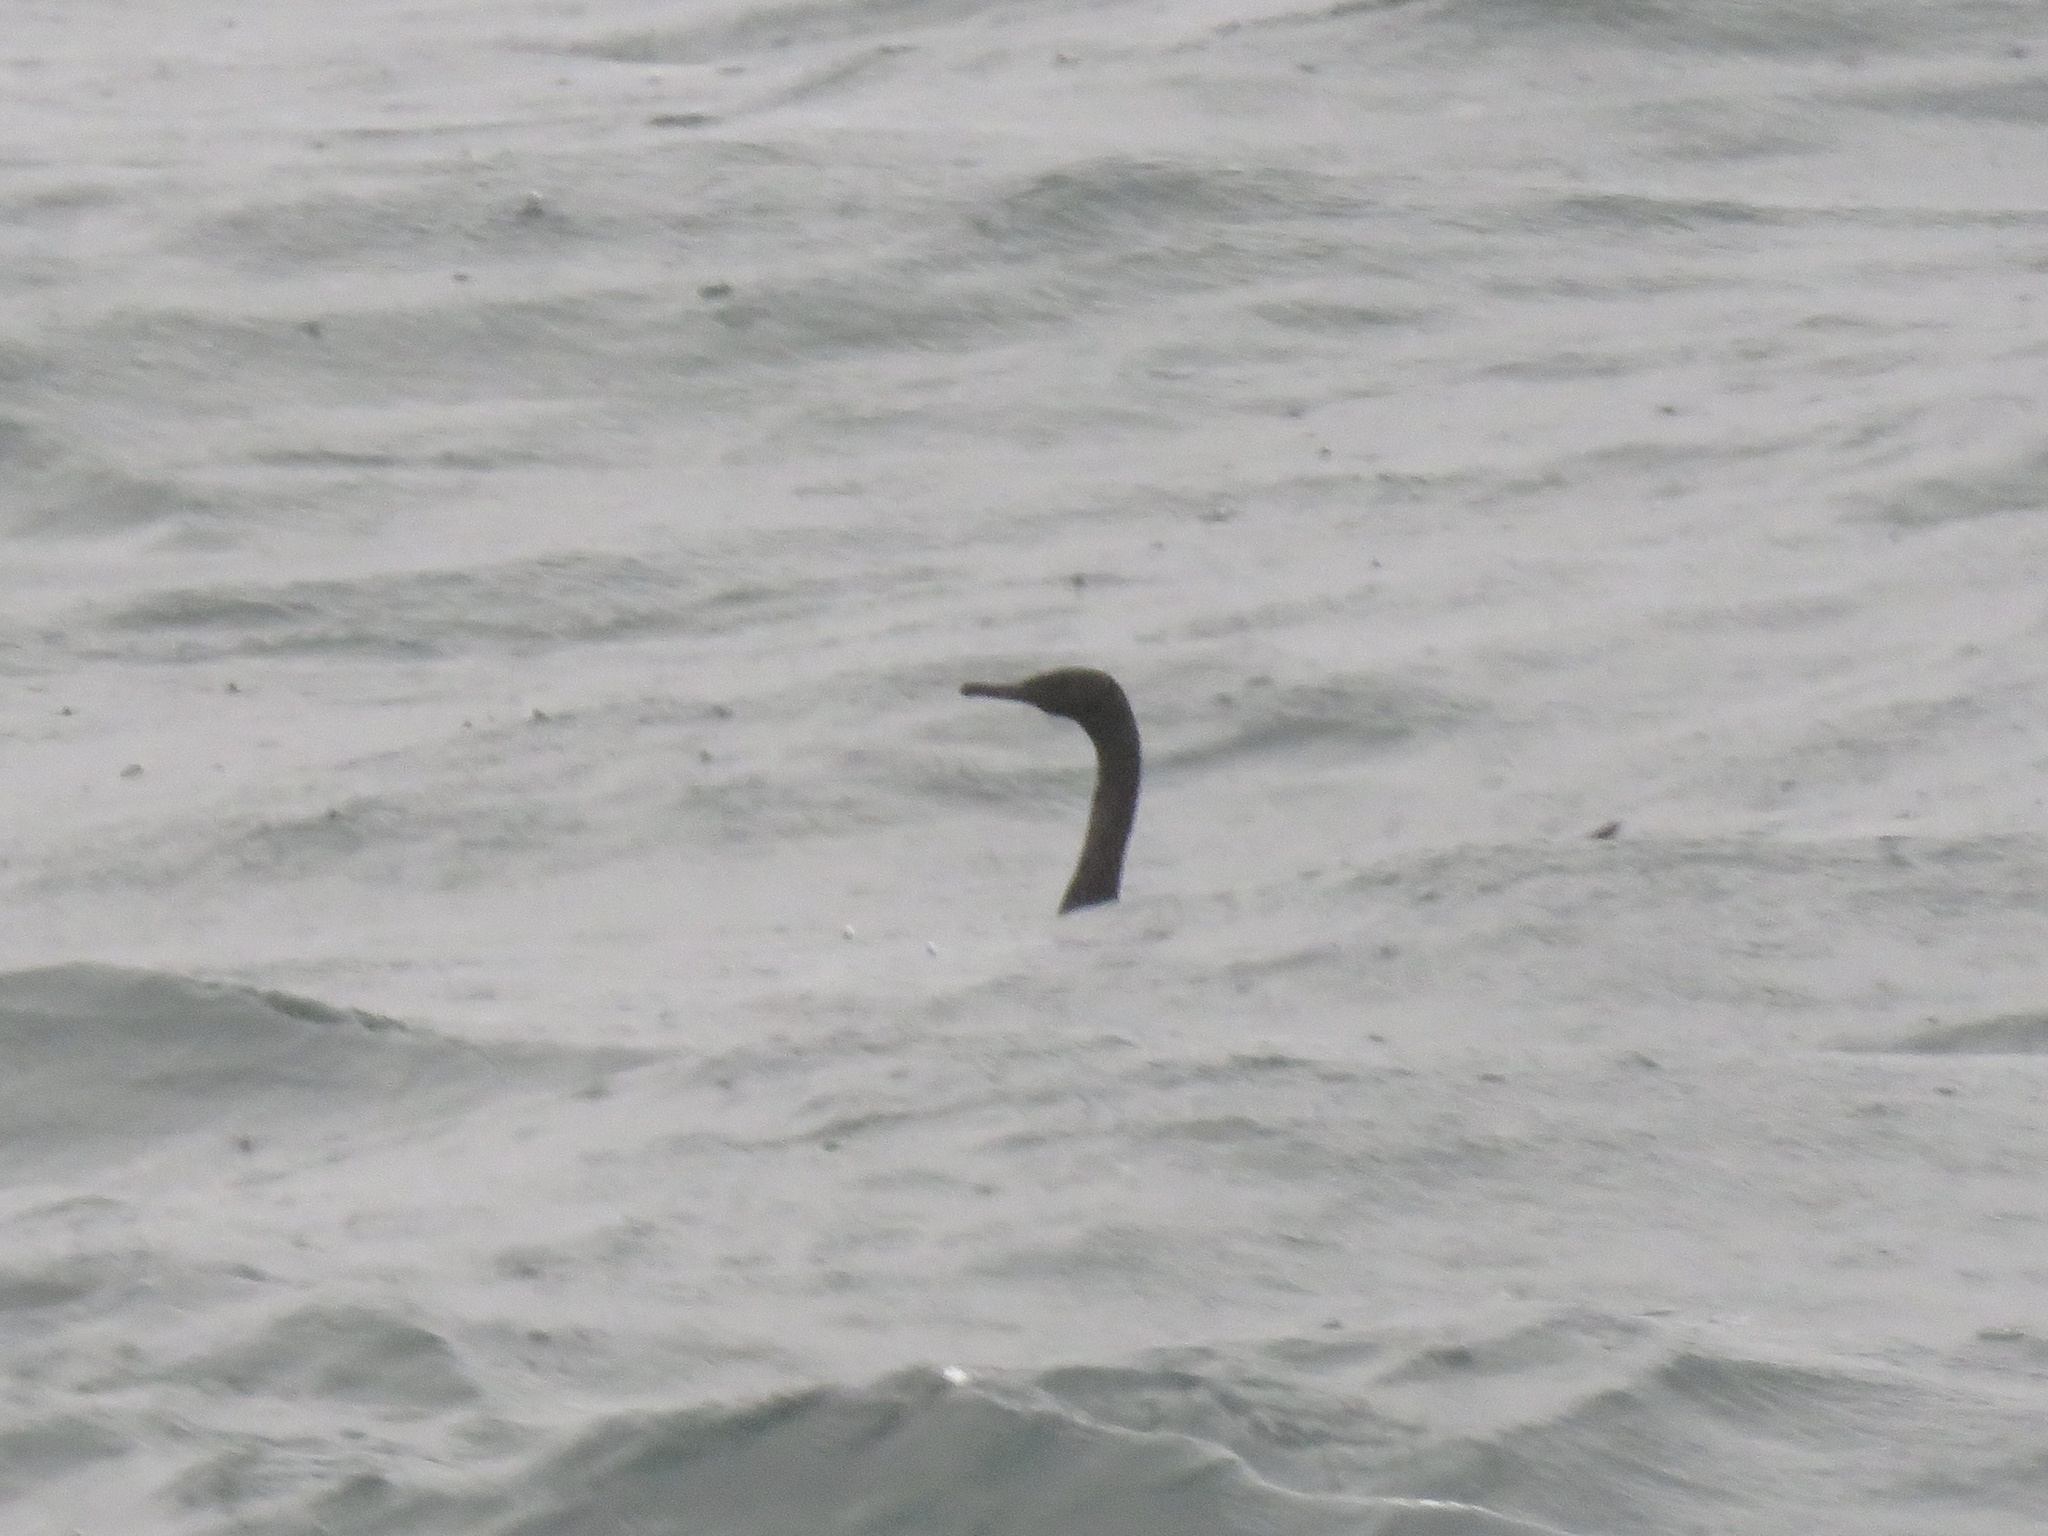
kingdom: Animalia
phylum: Chordata
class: Aves
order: Suliformes
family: Phalacrocoracidae
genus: Phalacrocorax
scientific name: Phalacrocorax pelagicus
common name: Pelagic cormorant
